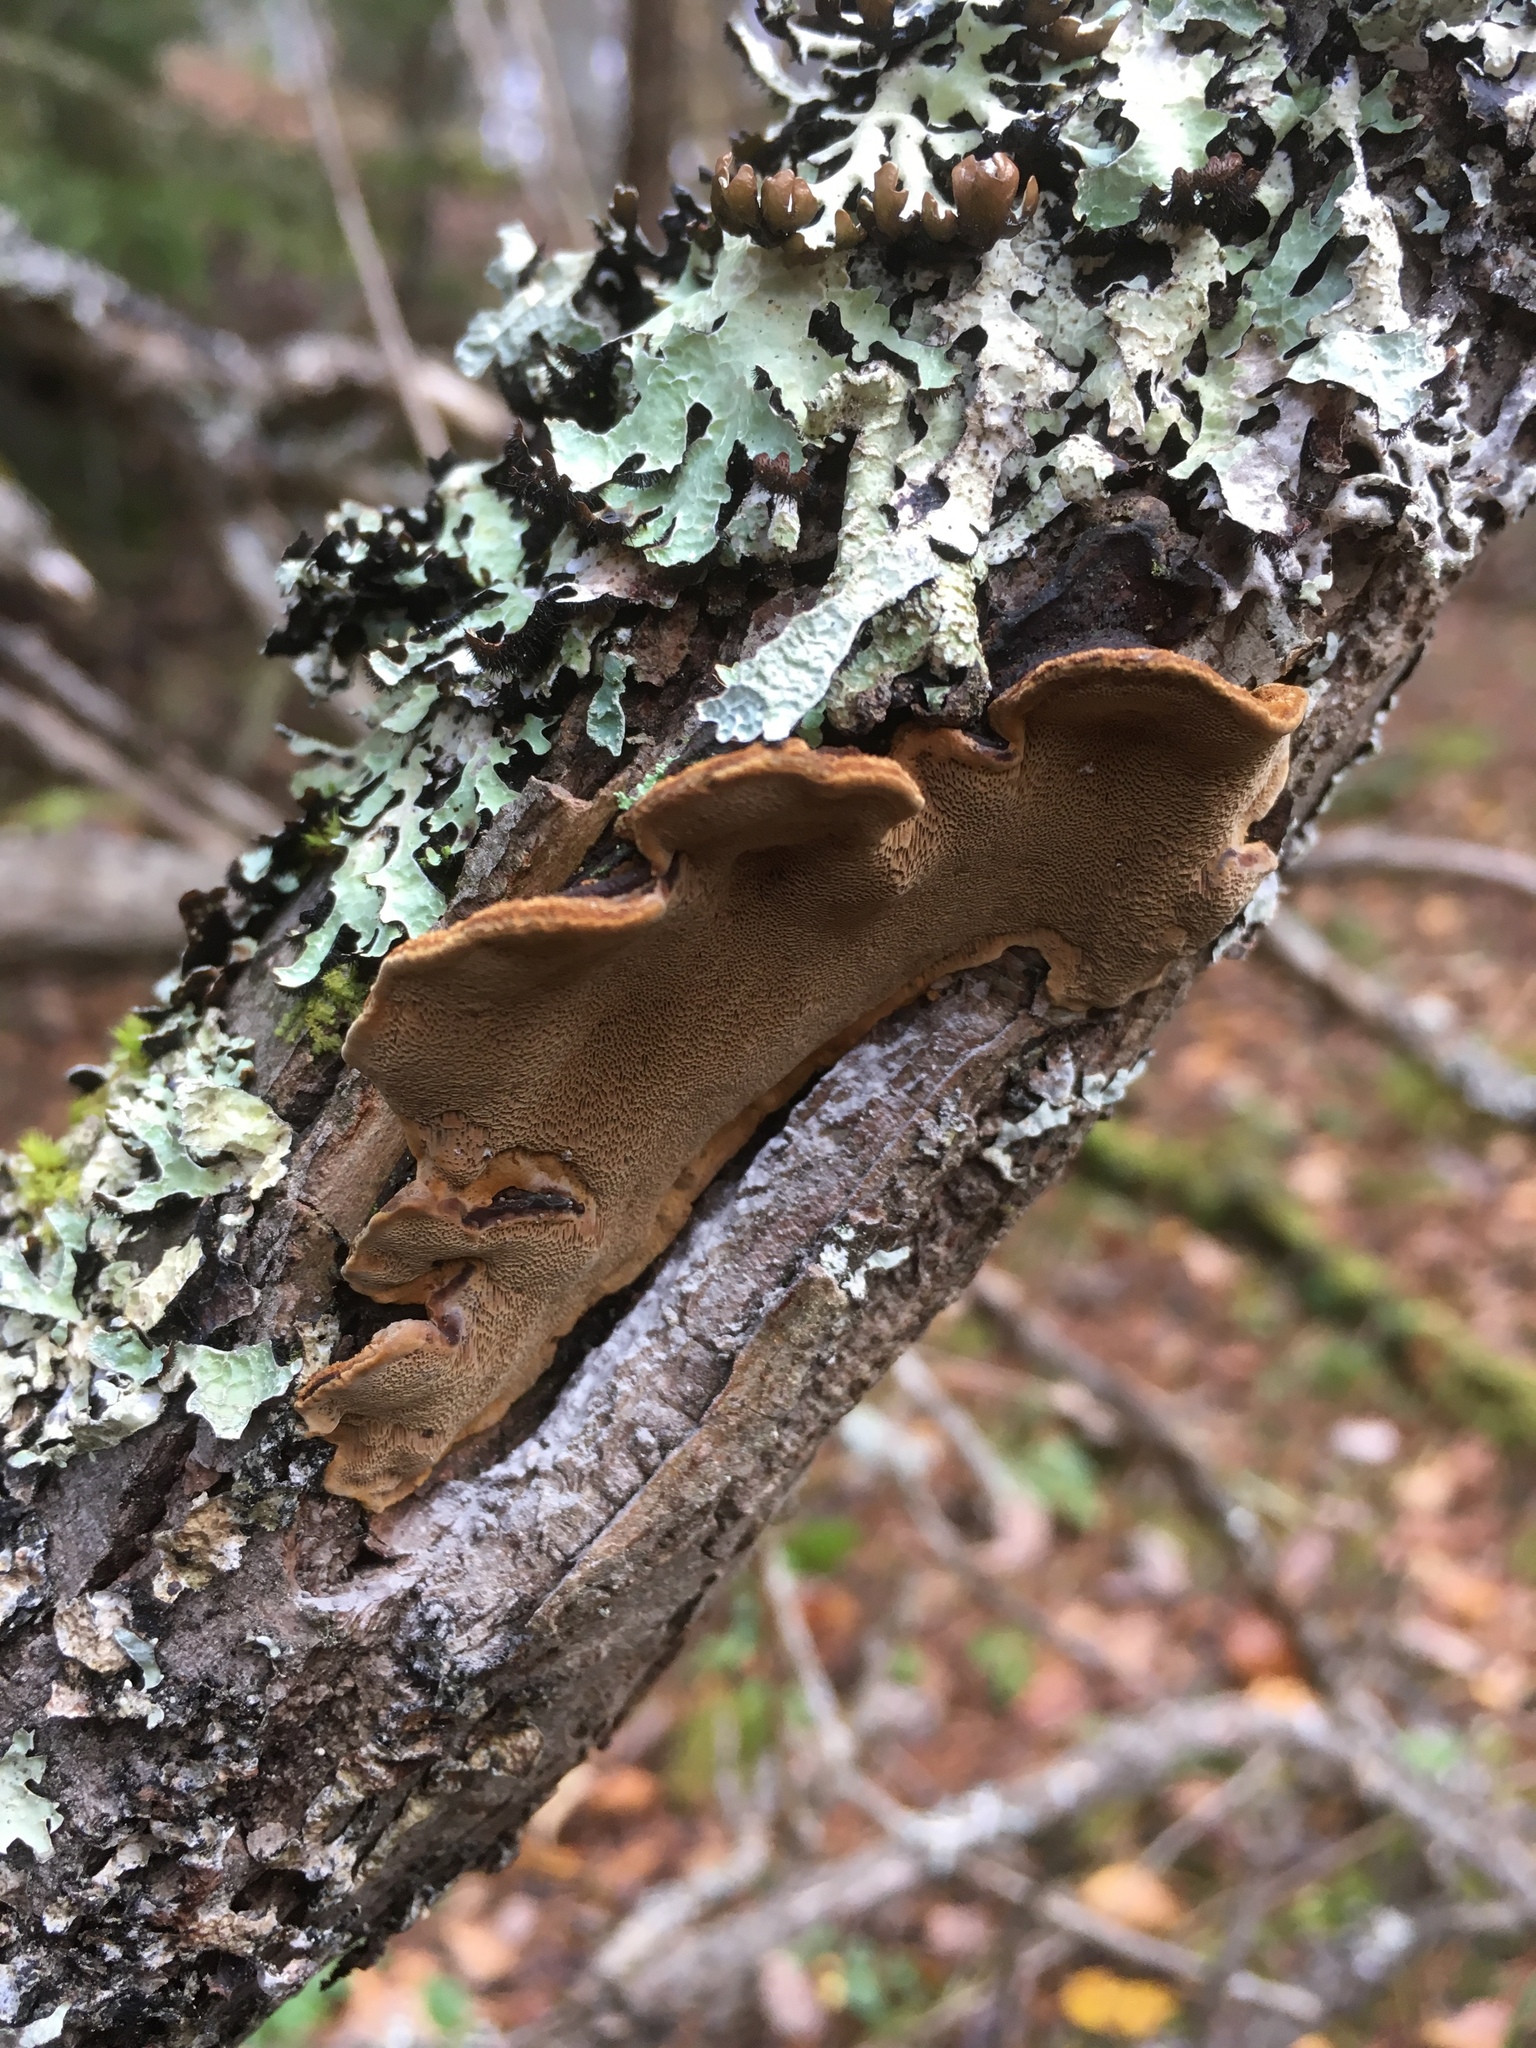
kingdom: Fungi
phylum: Basidiomycota
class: Agaricomycetes
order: Hymenochaetales
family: Hymenochaetaceae
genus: Phellinopsis
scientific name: Phellinopsis conchata
